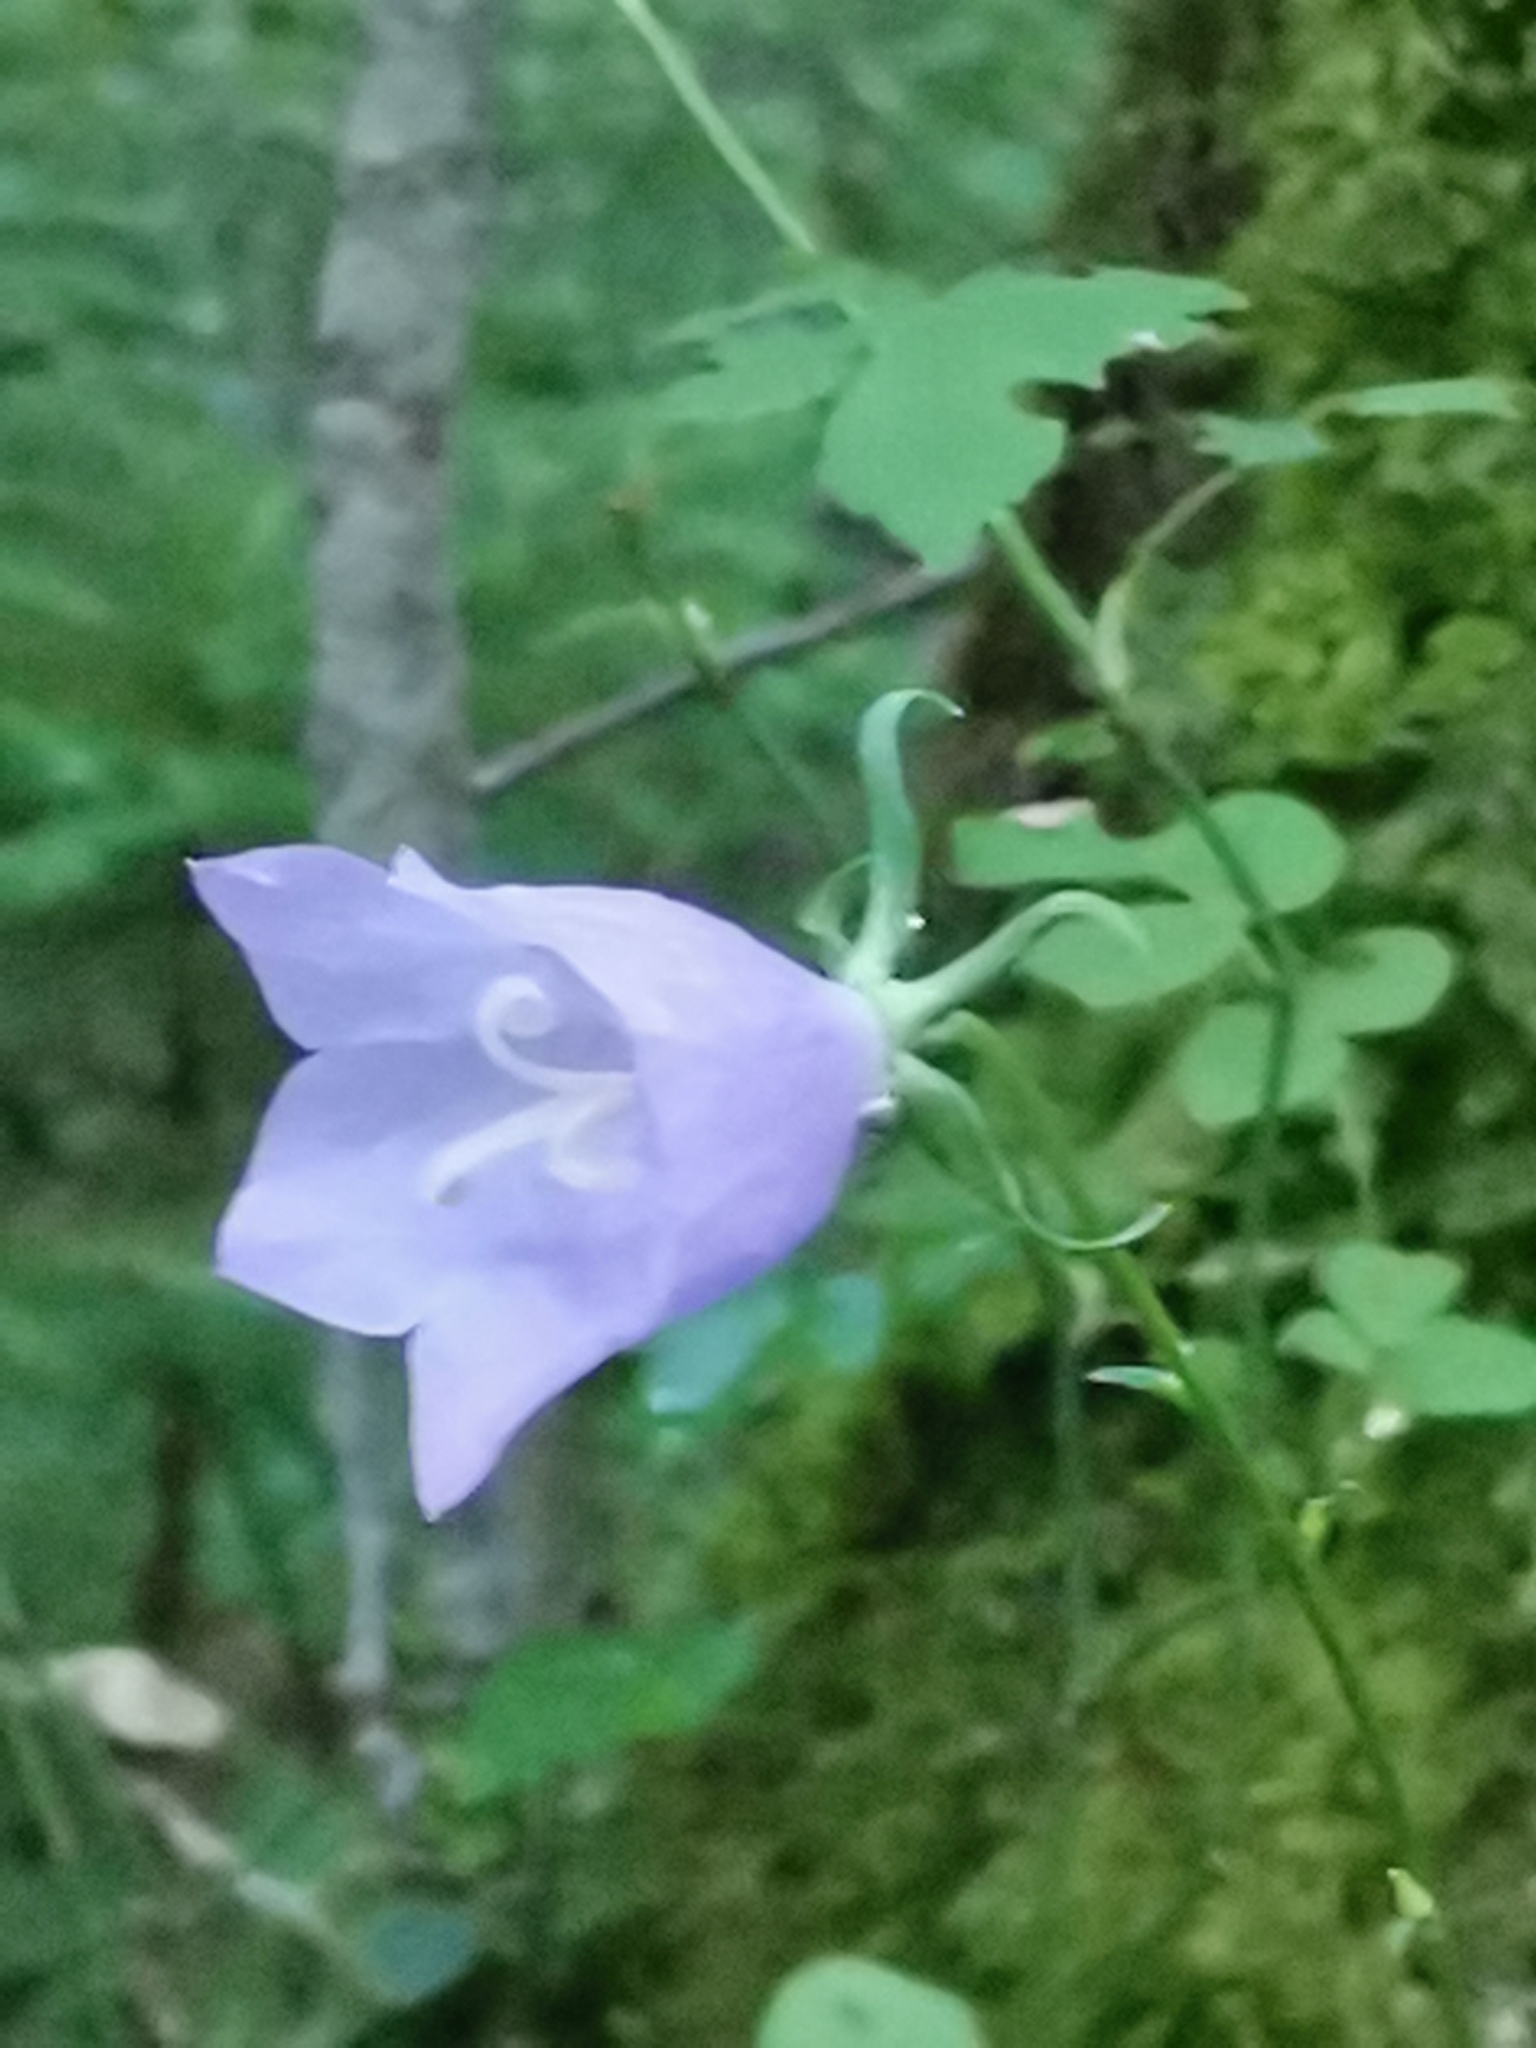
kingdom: Plantae
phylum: Tracheophyta
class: Magnoliopsida
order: Asterales
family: Campanulaceae
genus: Campanula
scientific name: Campanula persicifolia
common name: Peach-leaved bellflower
